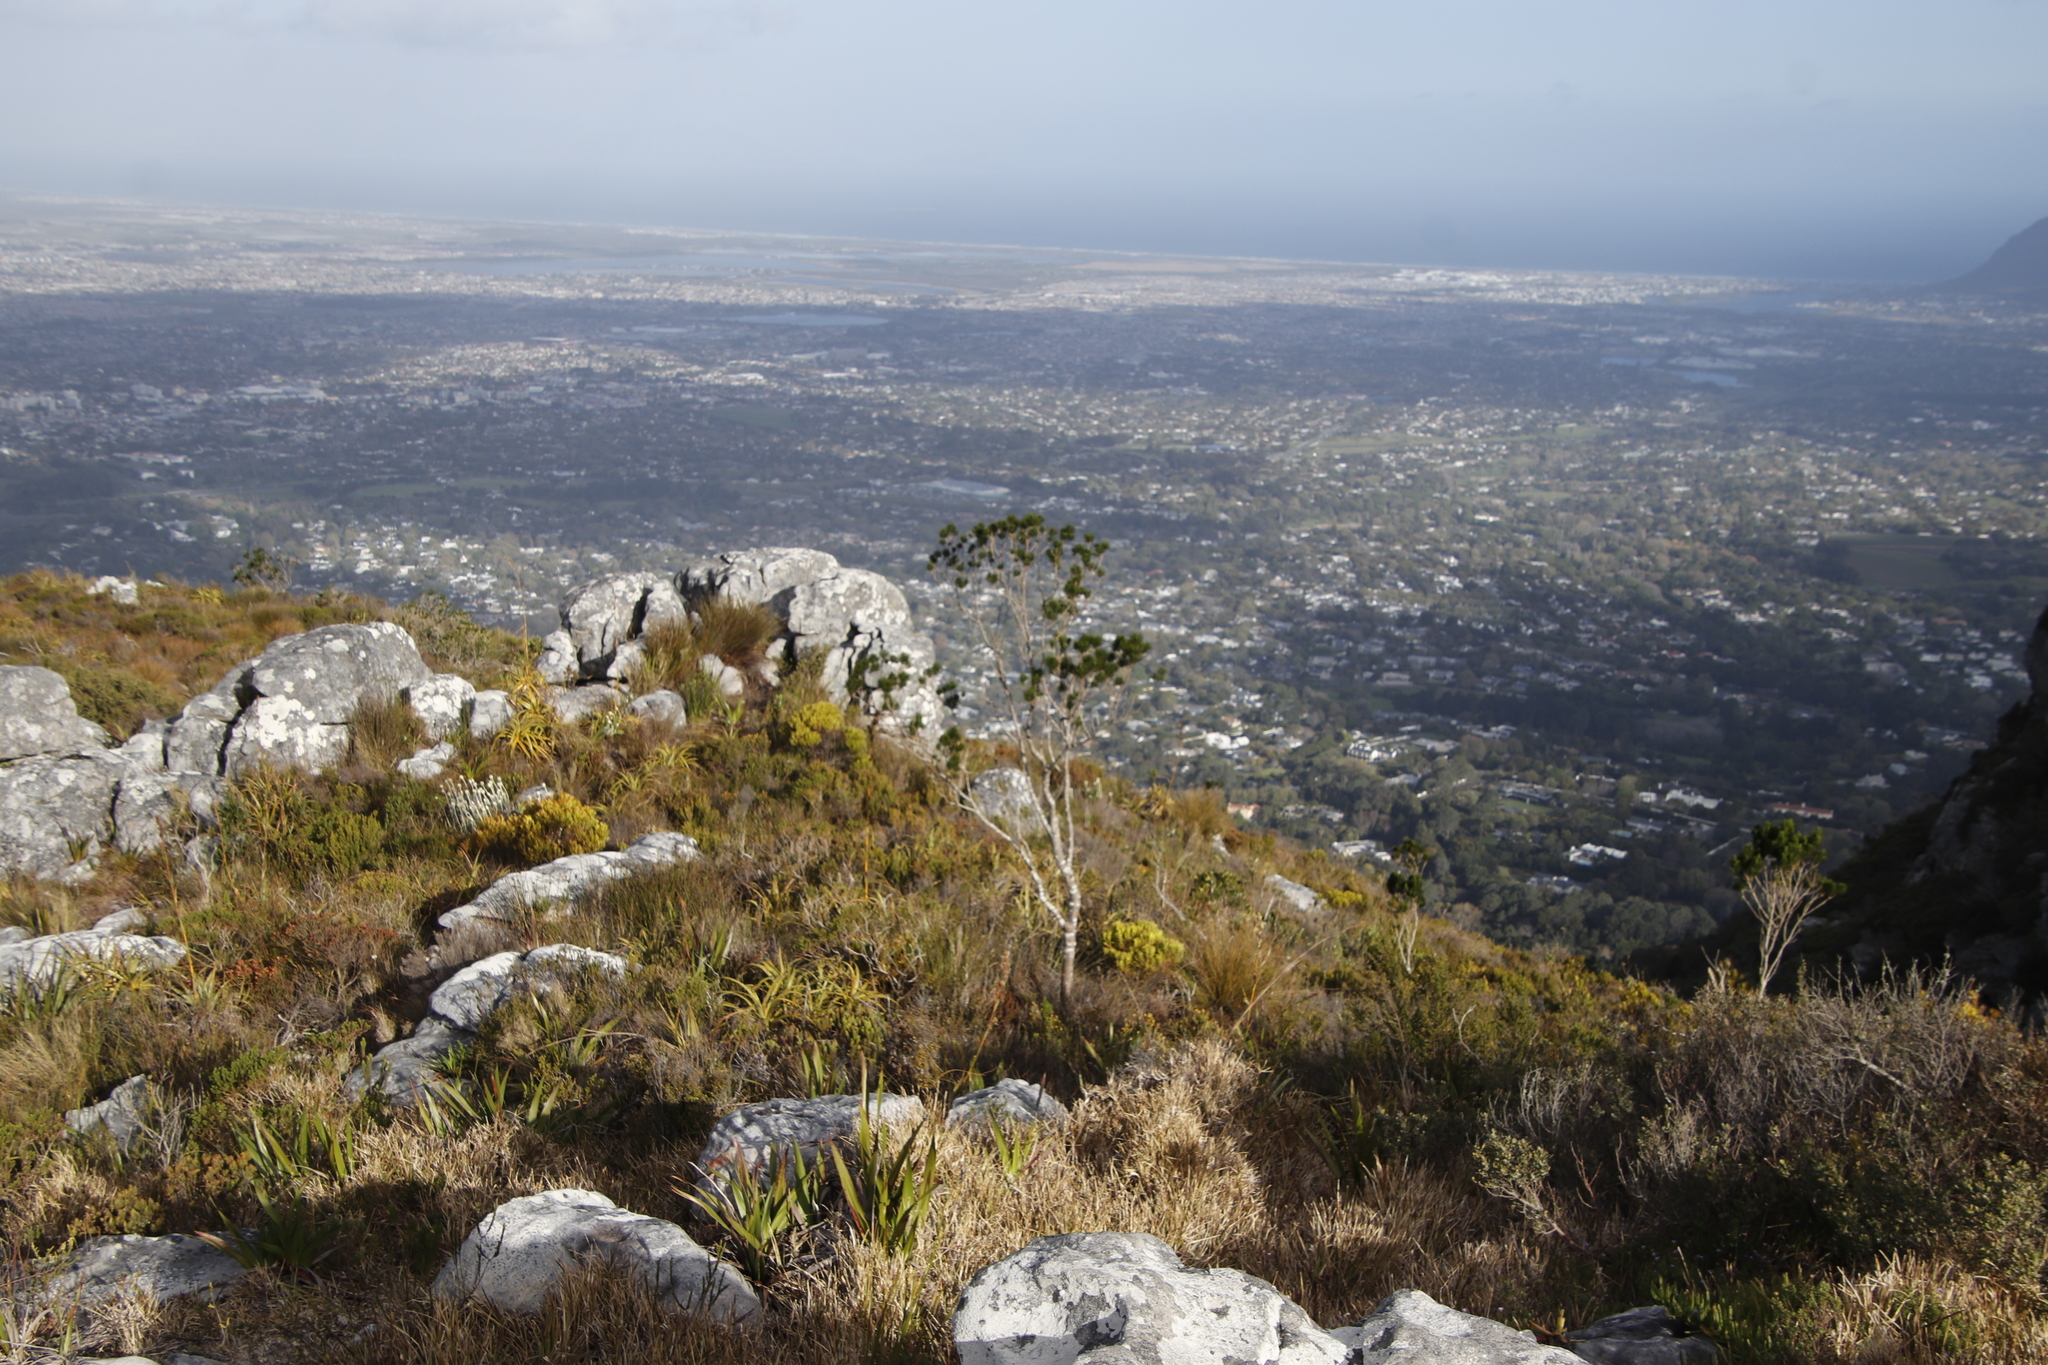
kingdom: Plantae
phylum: Tracheophyta
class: Magnoliopsida
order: Fabales
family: Fabaceae
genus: Psoralea
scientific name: Psoralea pinnata
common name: African scurfpea
